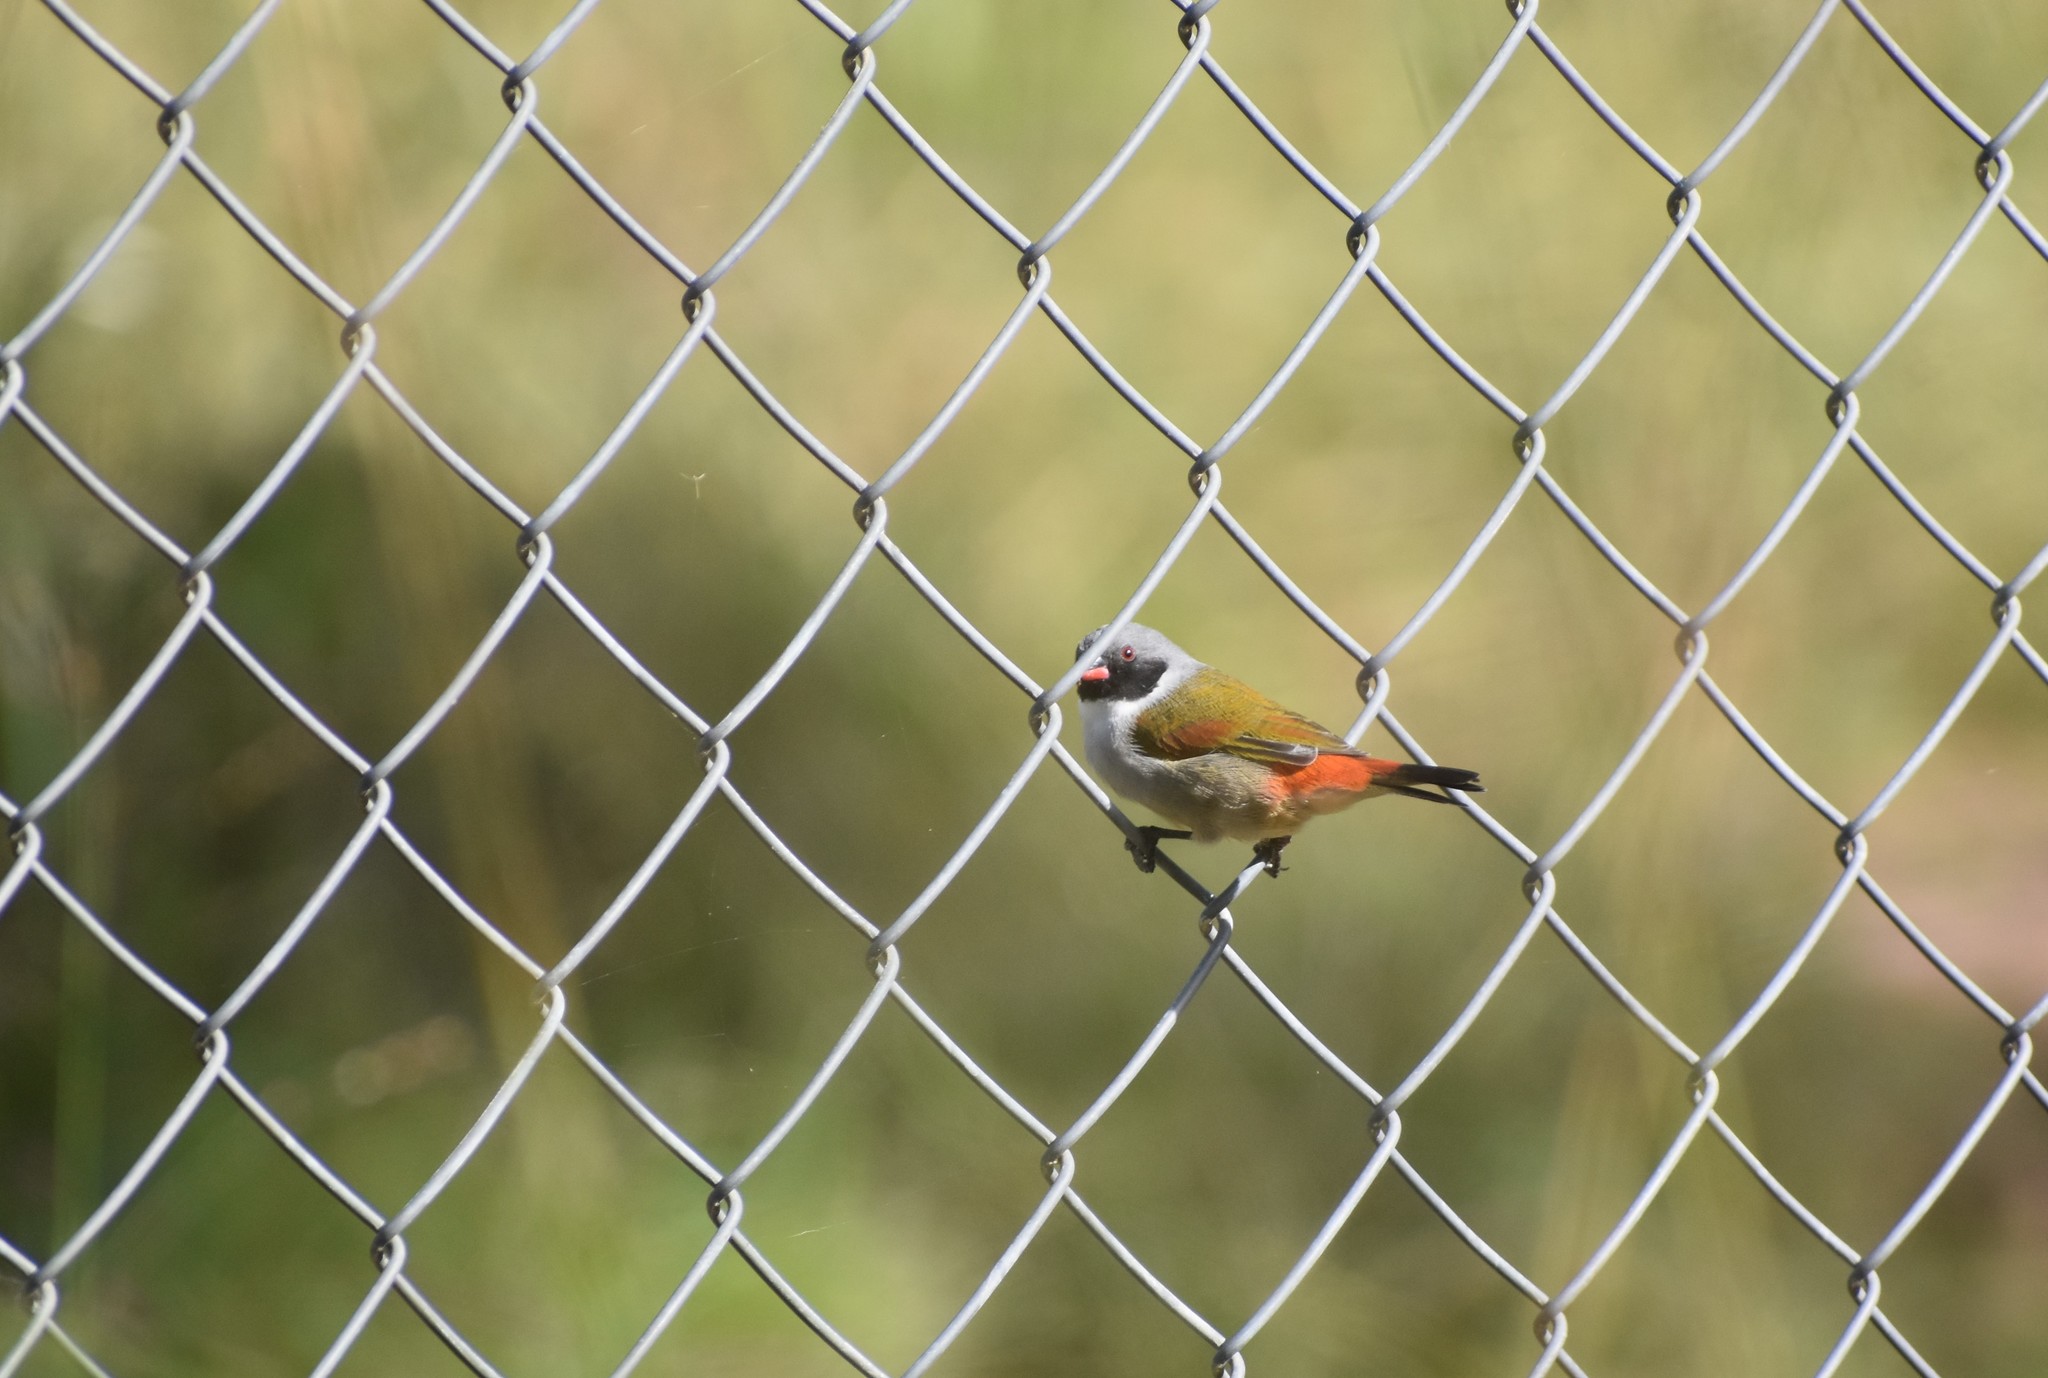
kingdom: Animalia
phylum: Chordata
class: Aves
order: Passeriformes
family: Estrildidae
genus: Coccopygia
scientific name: Coccopygia melanotis
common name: Swee waxbill
